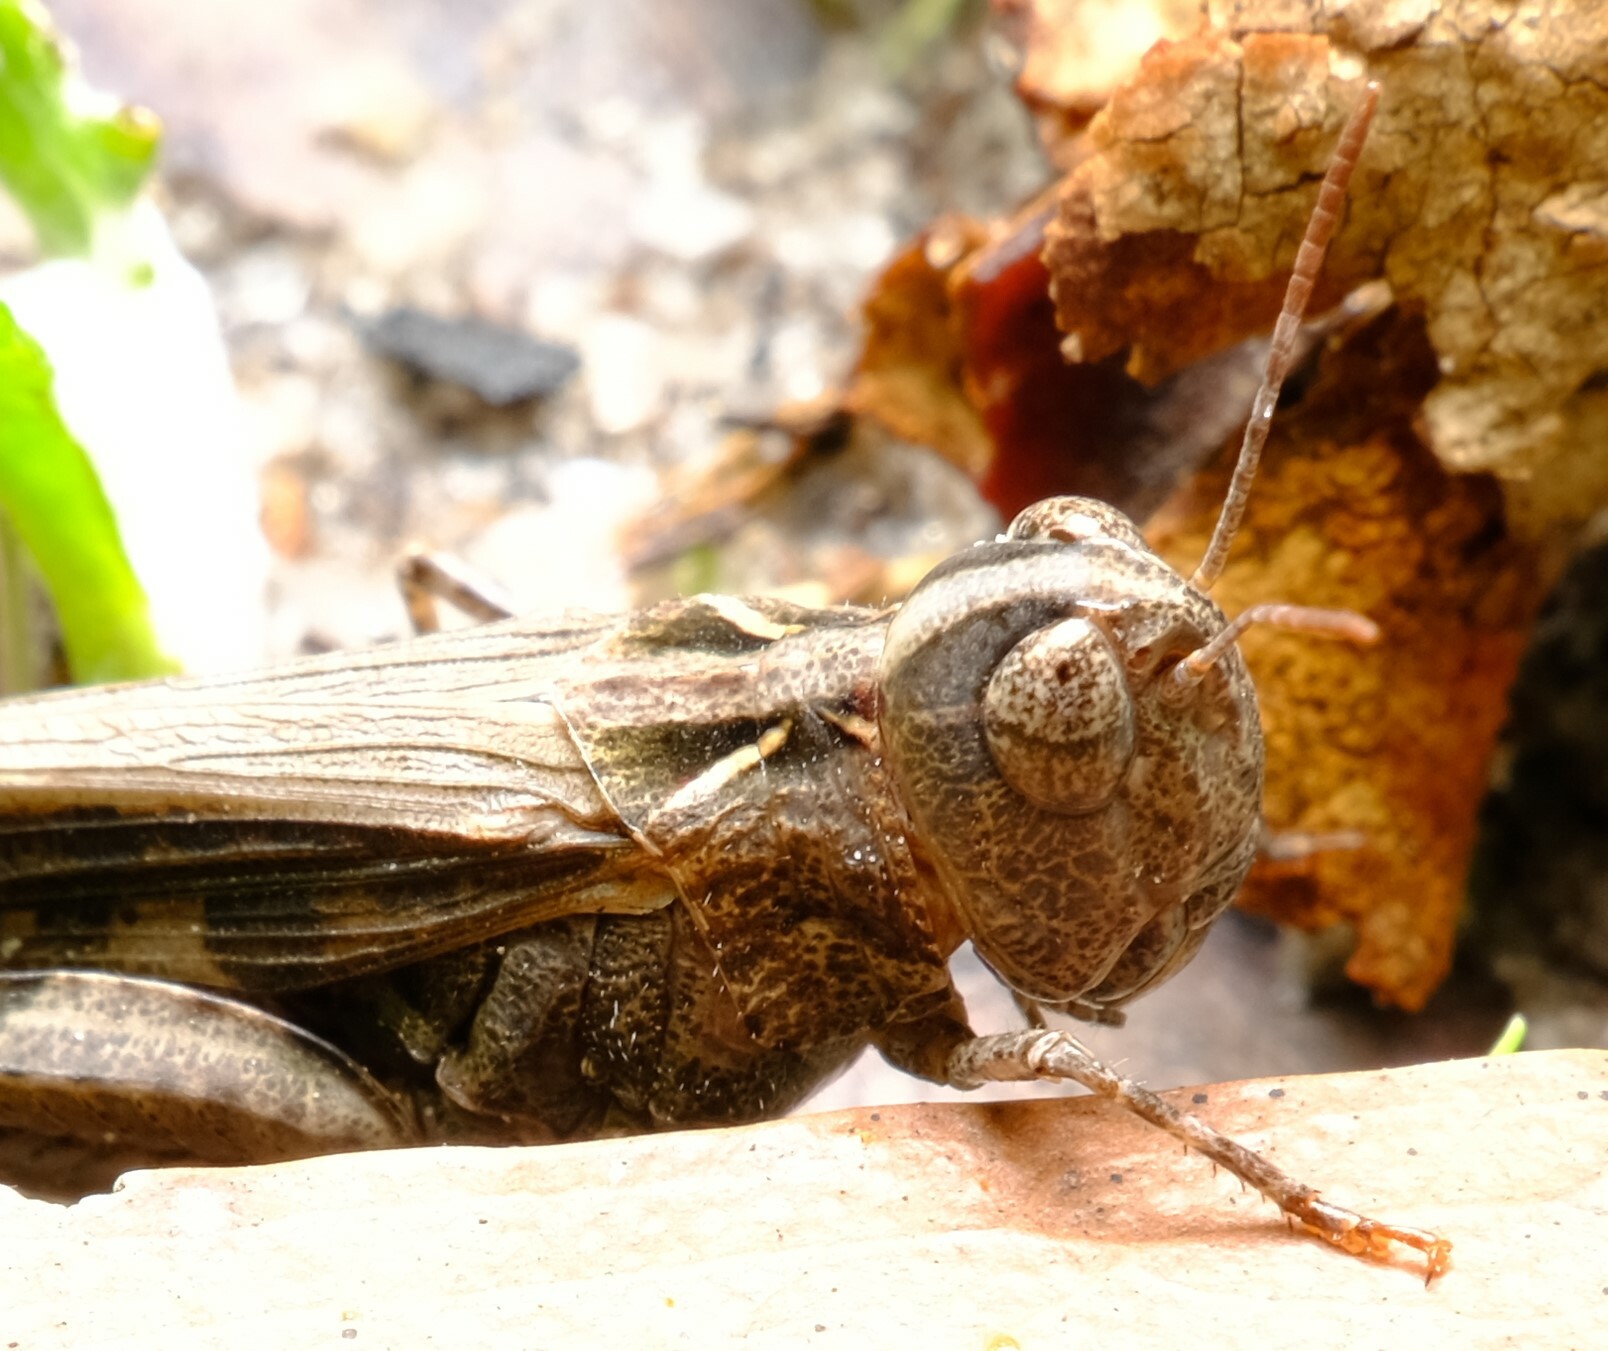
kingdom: Animalia
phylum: Arthropoda
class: Insecta
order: Orthoptera
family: Acrididae
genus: Austroicetes
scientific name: Austroicetes vulgaris
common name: Southeastern austroicetes
